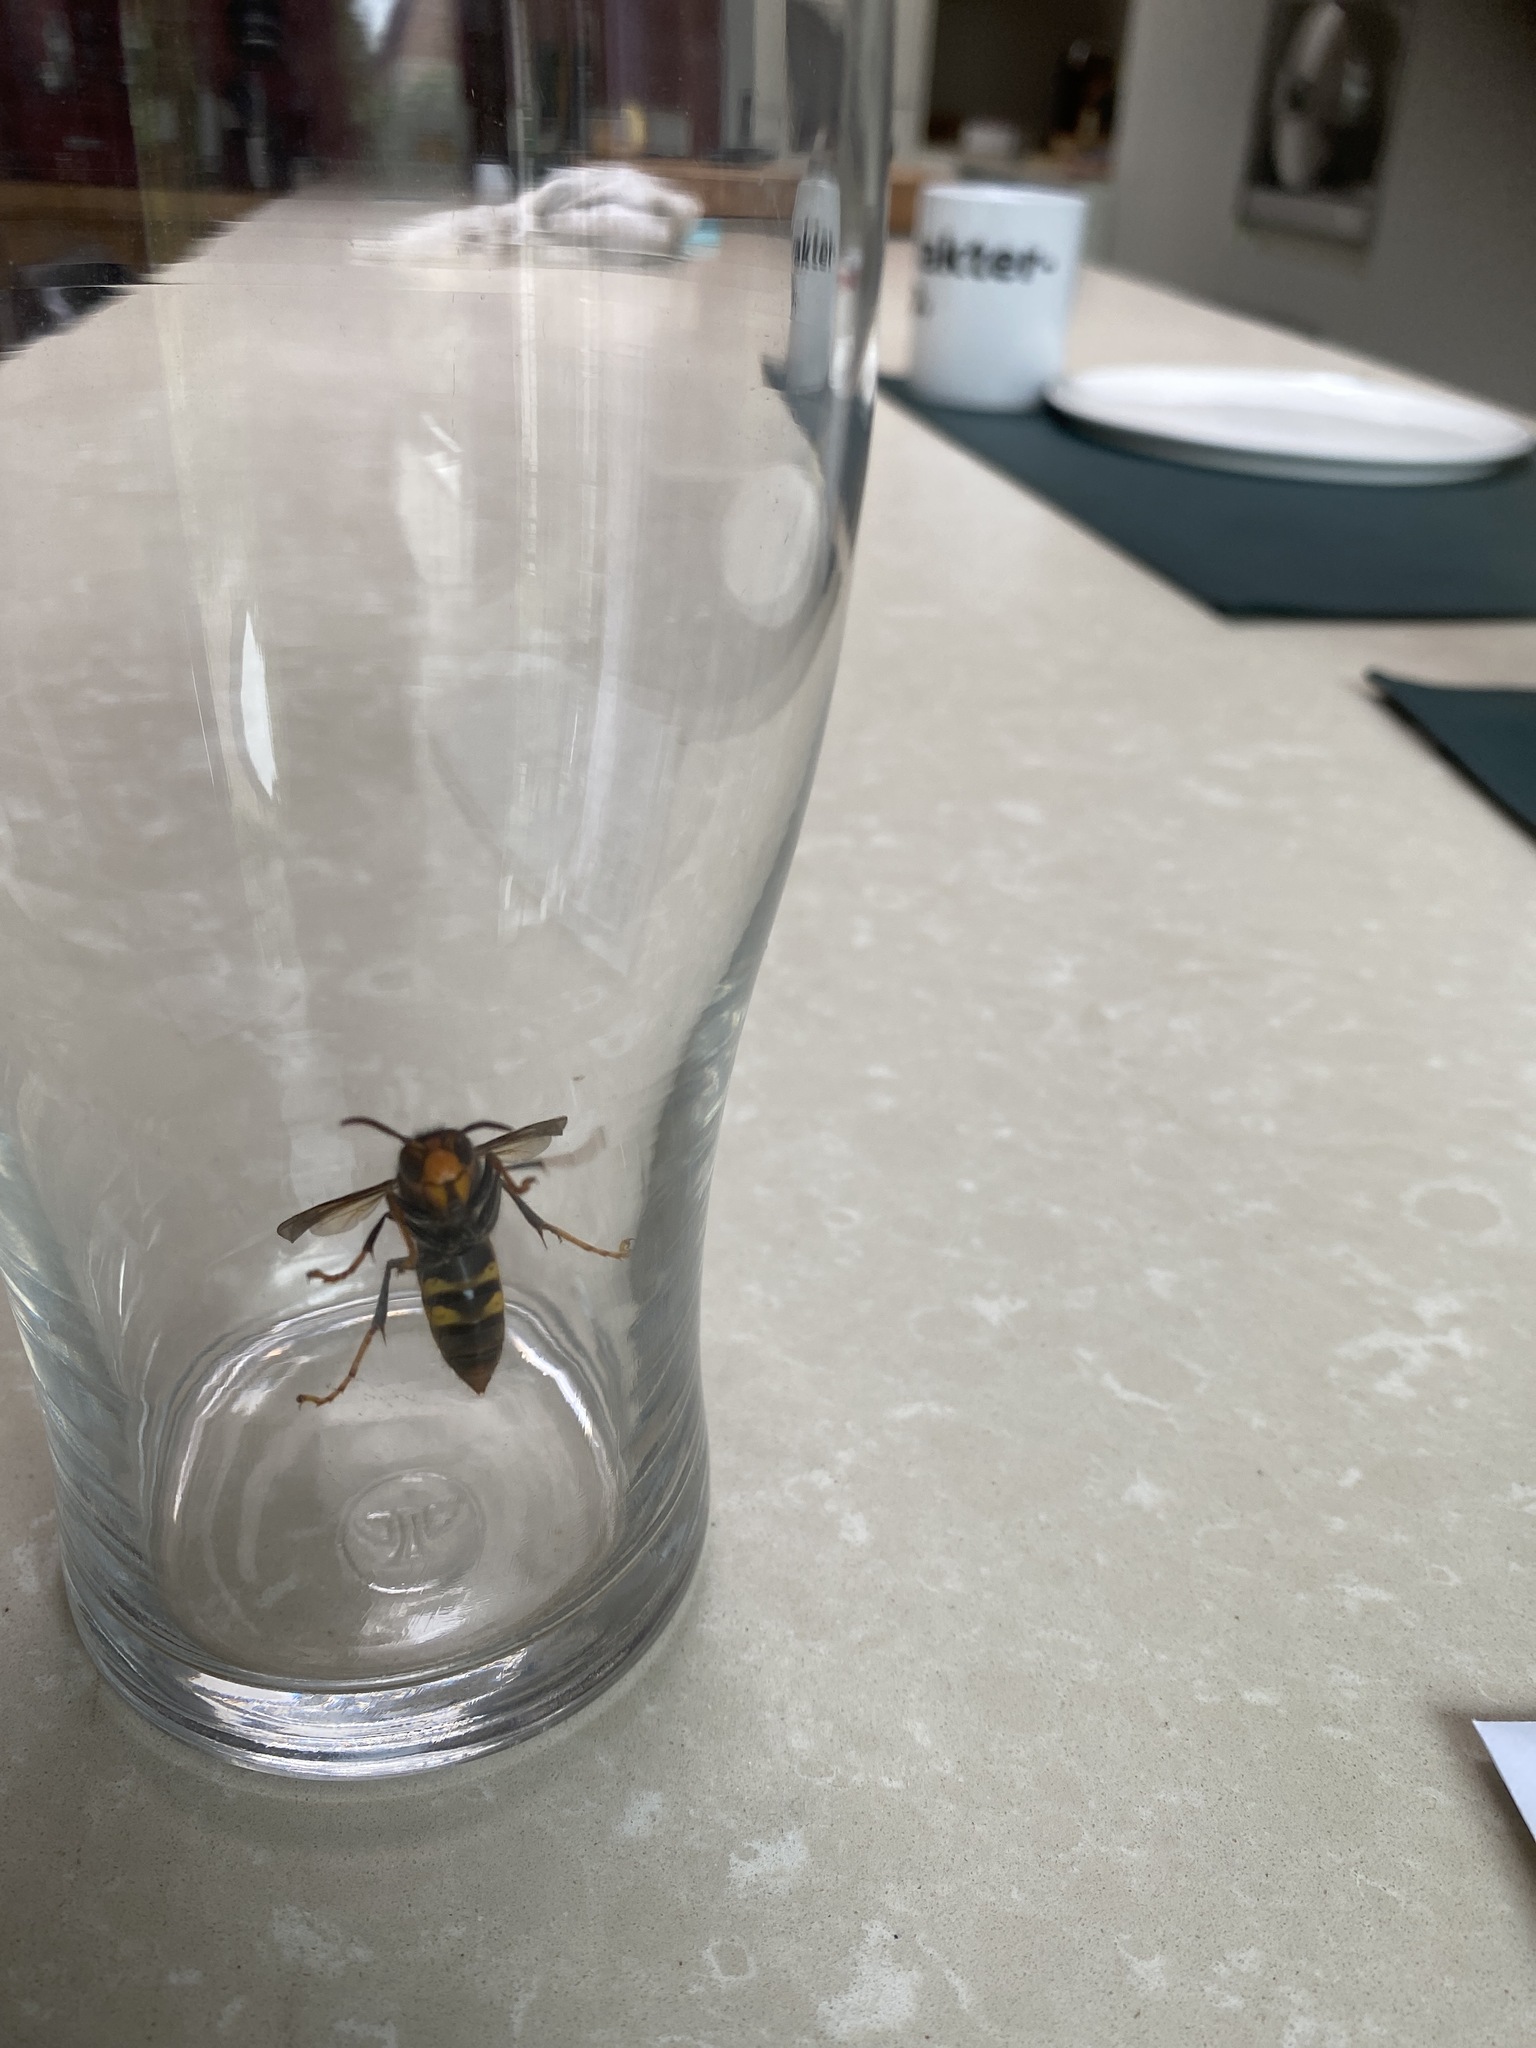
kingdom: Animalia
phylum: Arthropoda
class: Insecta
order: Hymenoptera
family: Vespidae
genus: Vespa
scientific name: Vespa velutina
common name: Asian hornet
